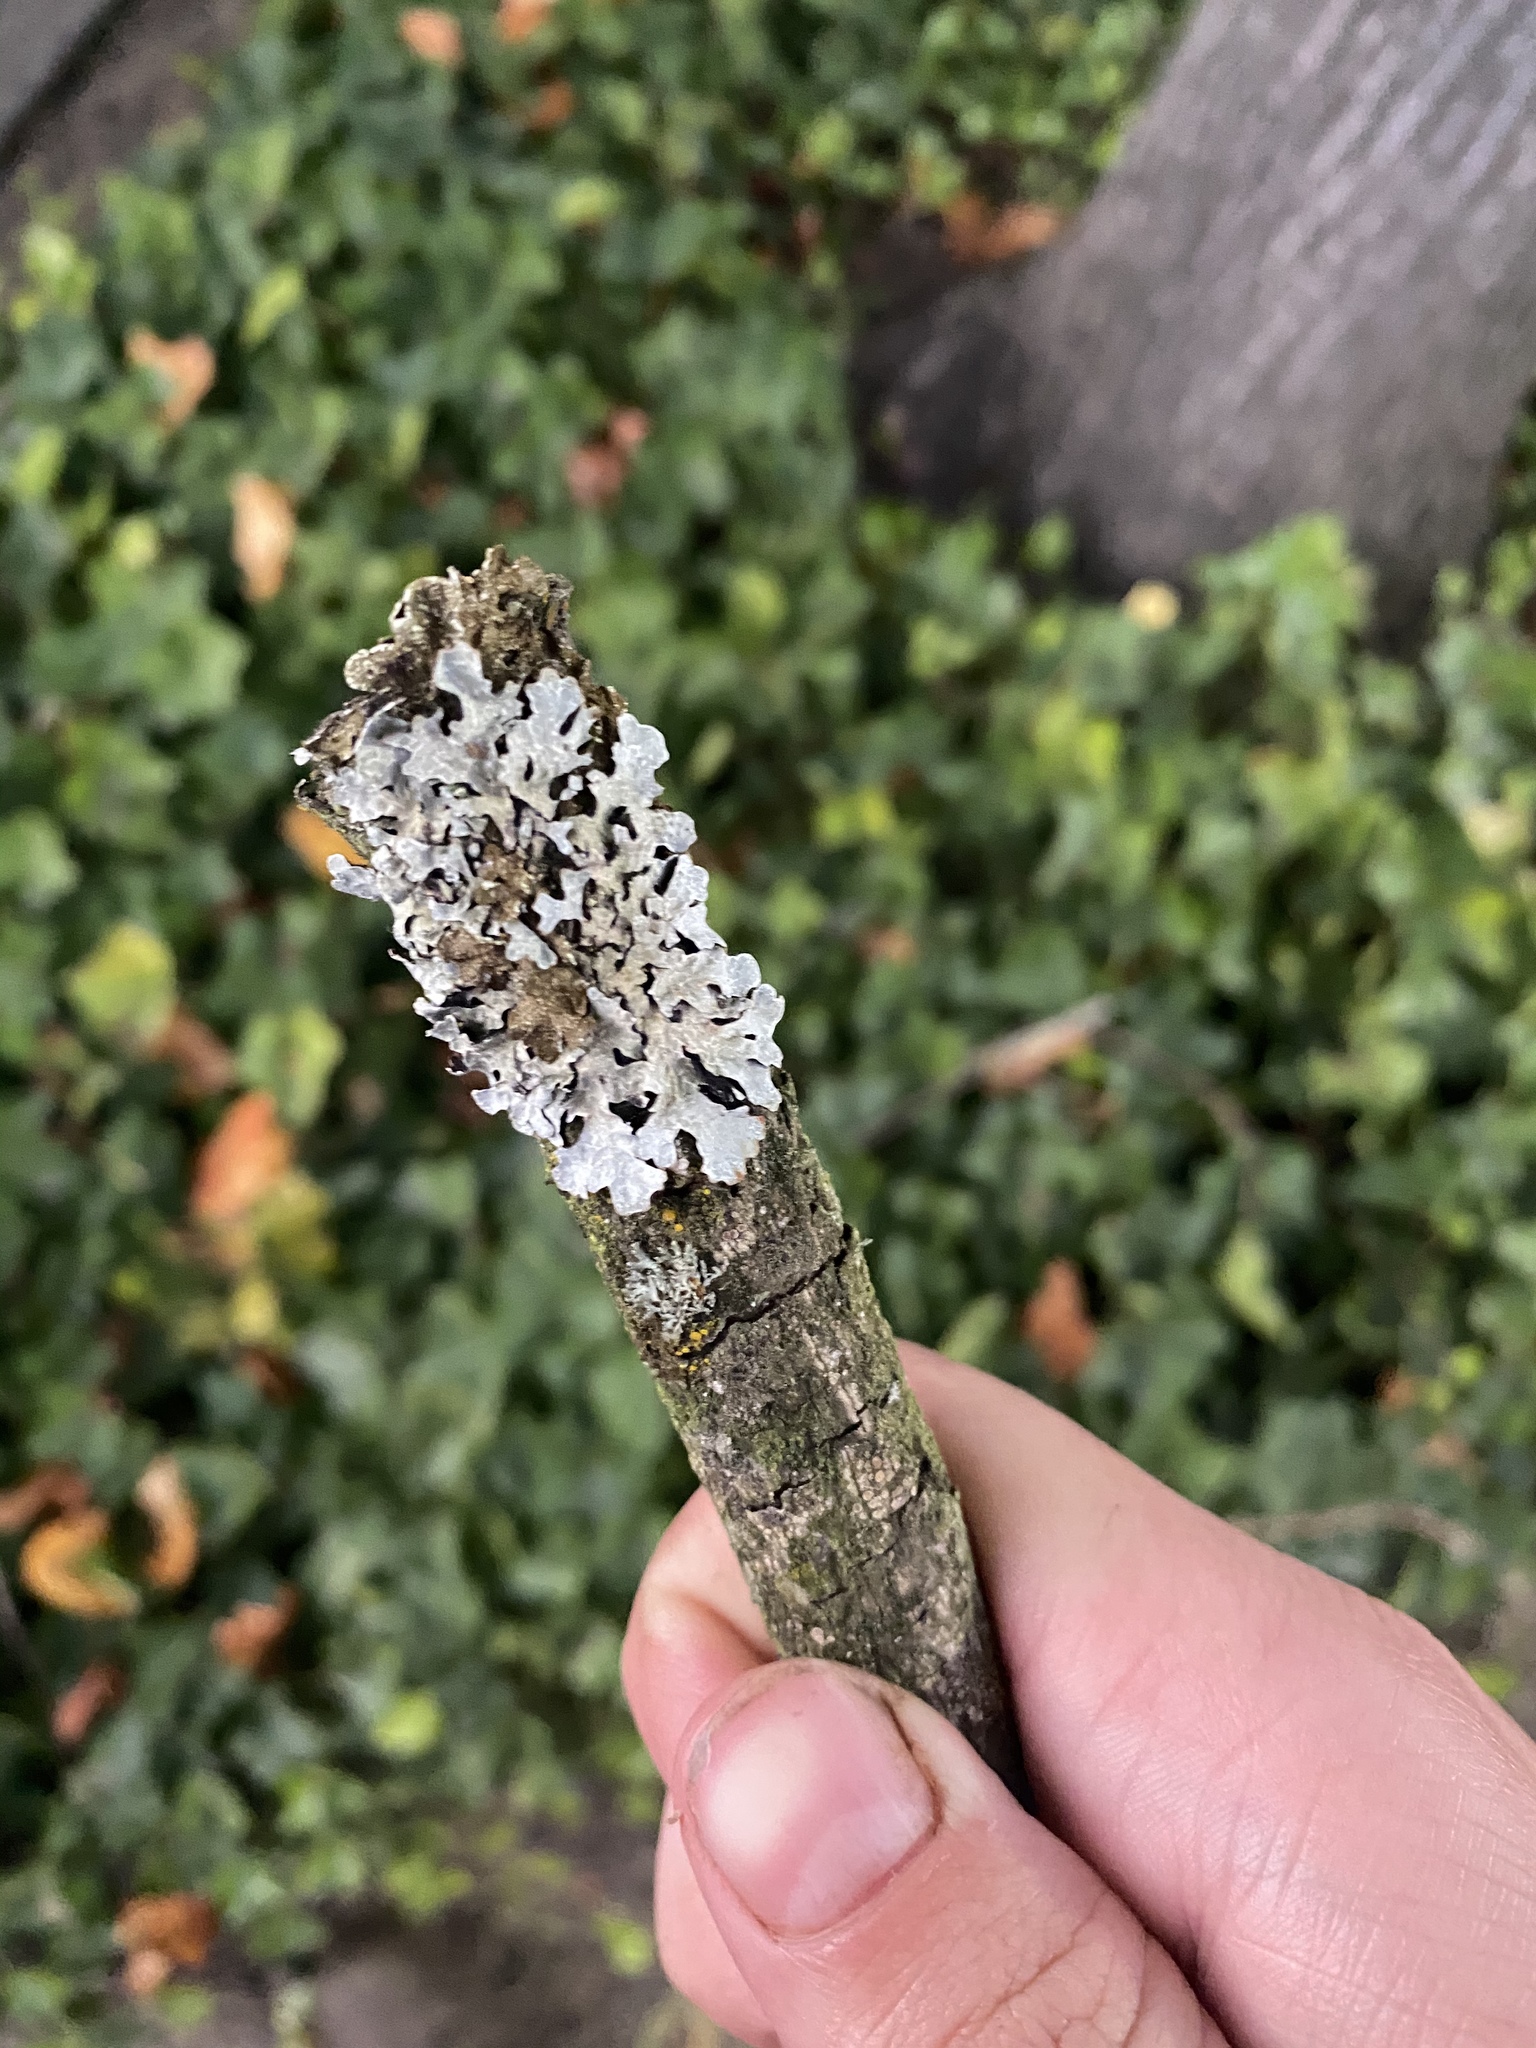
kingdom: Fungi
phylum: Ascomycota
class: Lecanoromycetes
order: Lecanorales
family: Parmeliaceae
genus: Parmelia
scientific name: Parmelia sulcata
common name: Netted shield lichen
